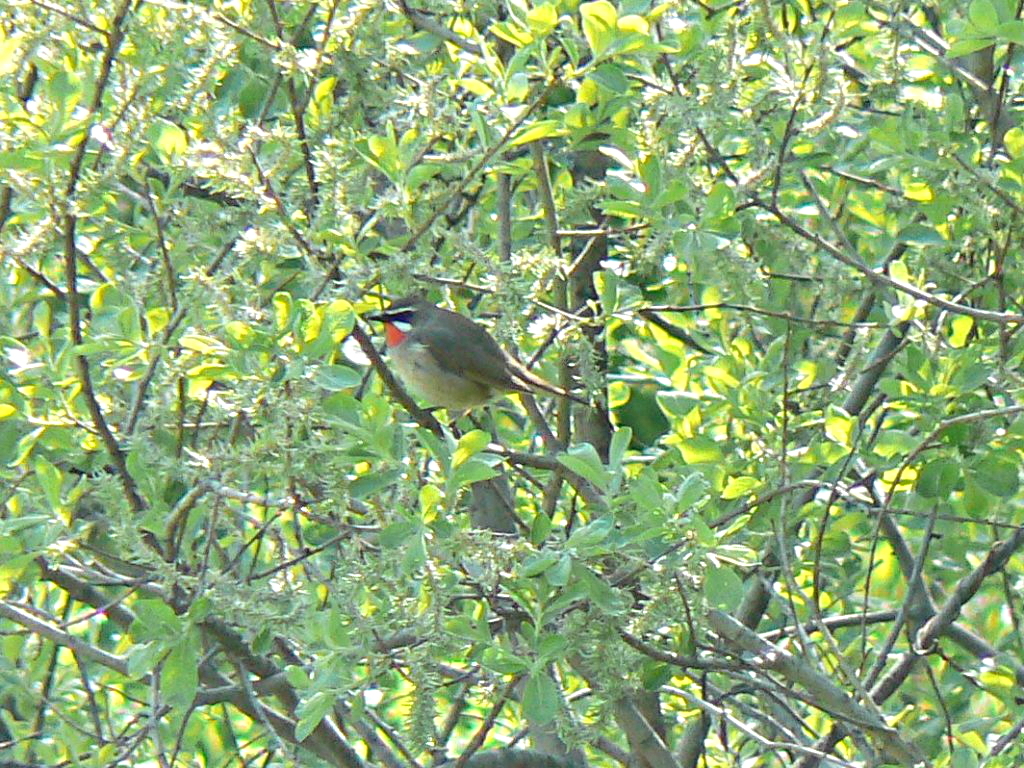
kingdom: Animalia
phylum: Chordata
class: Aves
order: Passeriformes
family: Muscicapidae
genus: Luscinia
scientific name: Luscinia calliope
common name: Siberian rubythroat
